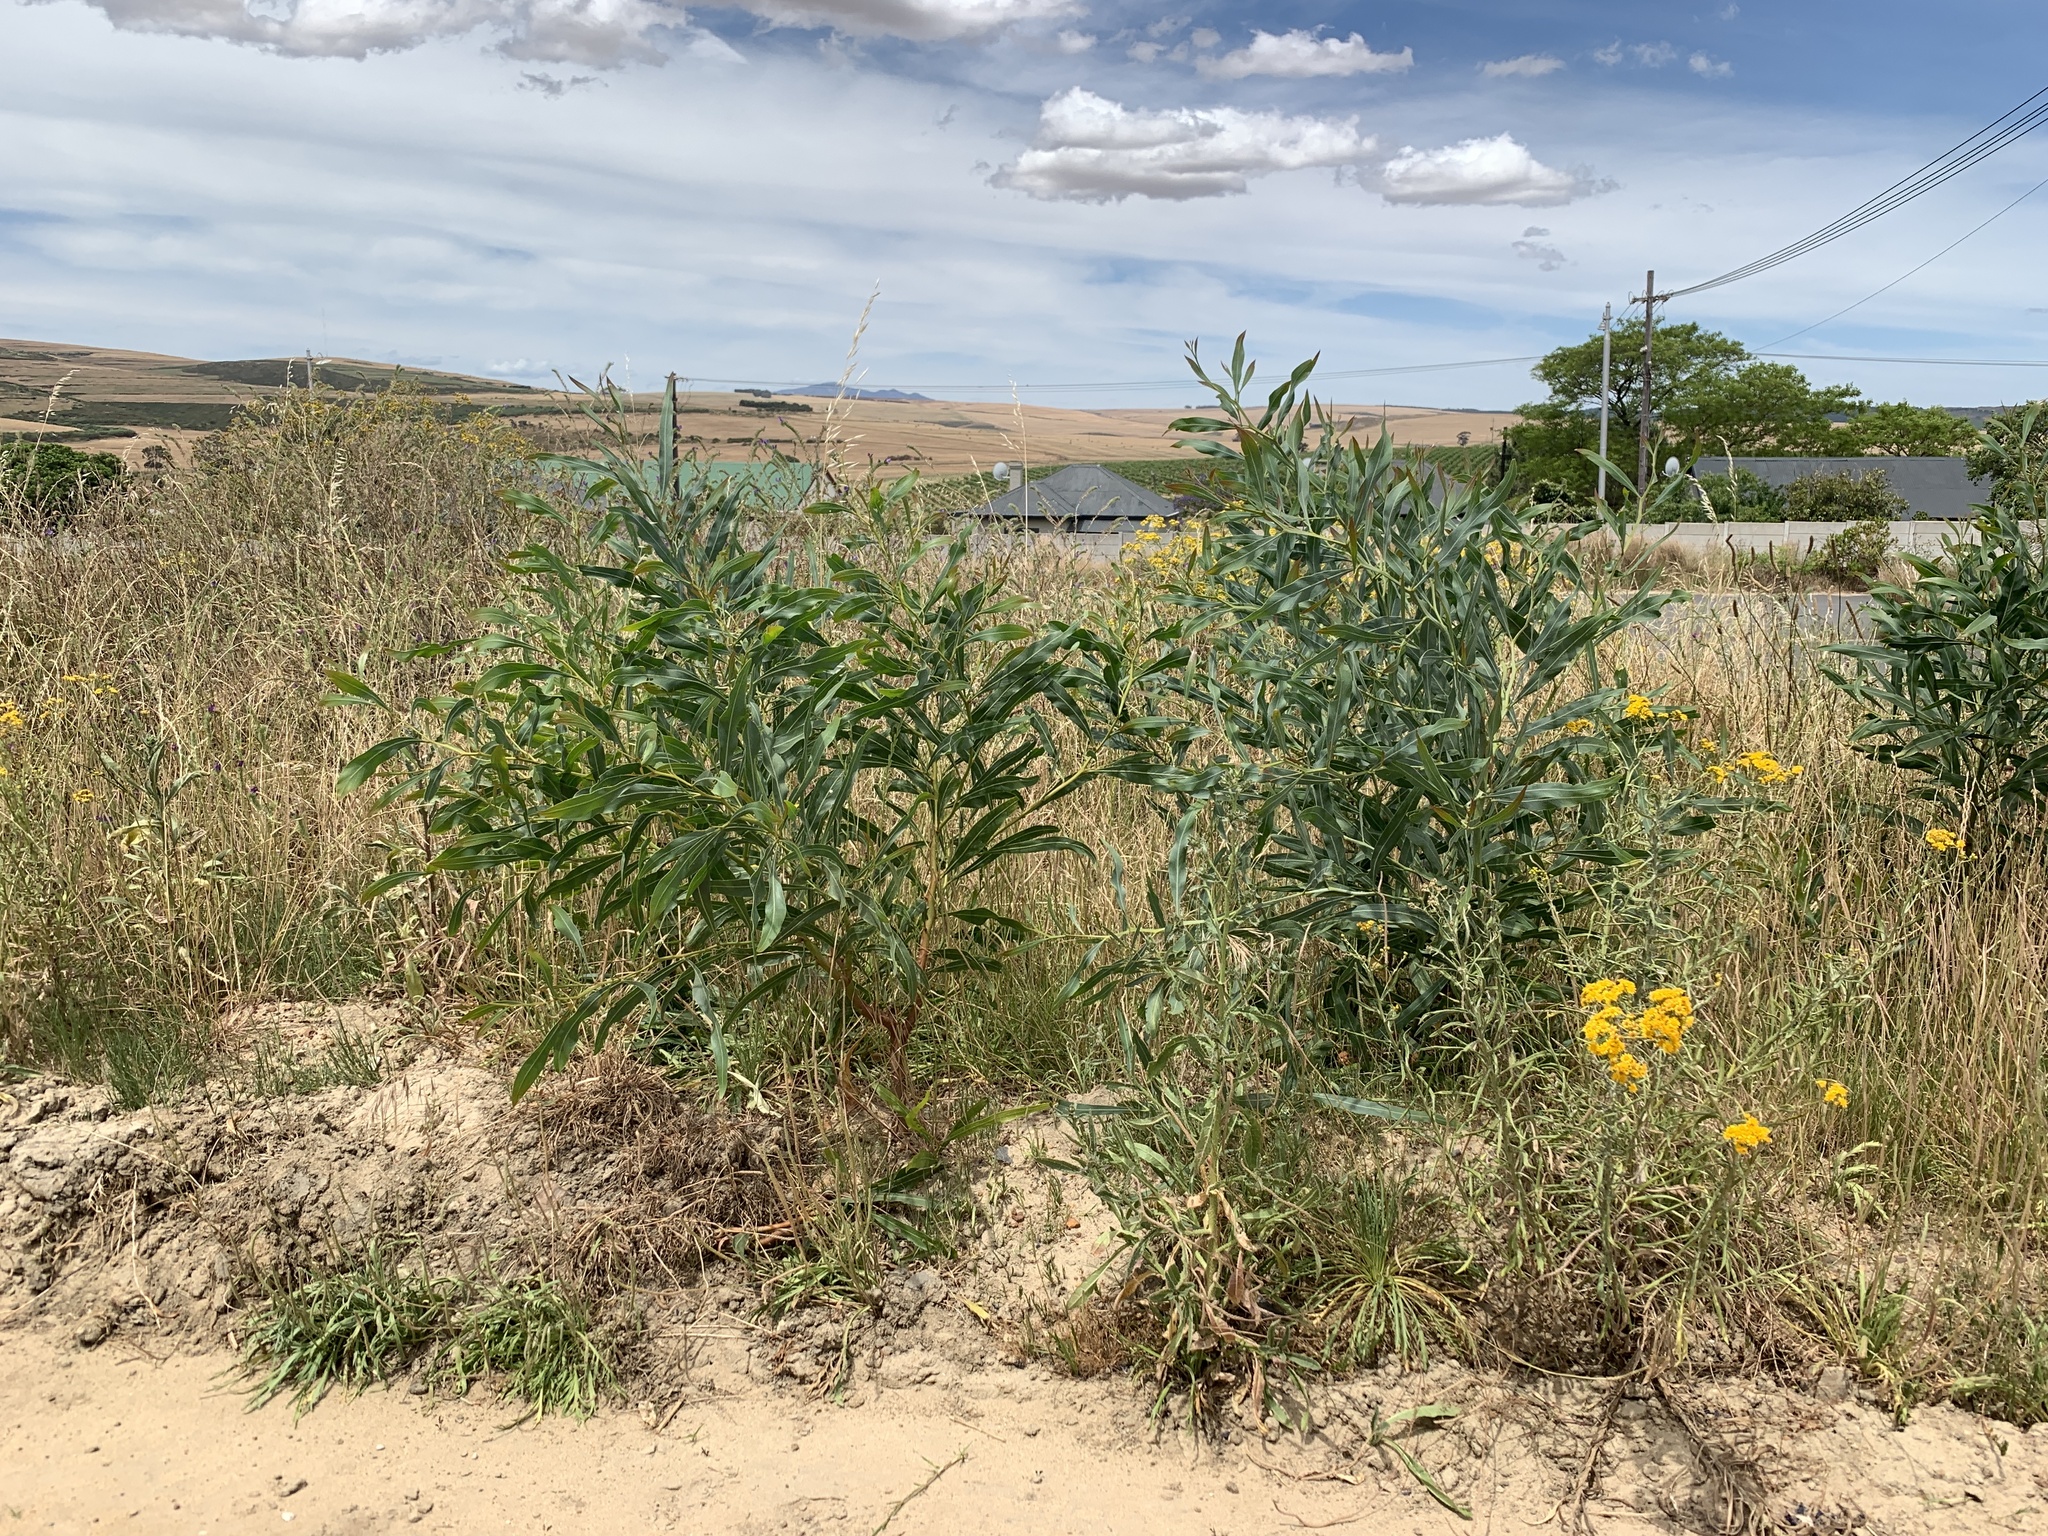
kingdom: Plantae
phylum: Tracheophyta
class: Magnoliopsida
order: Fabales
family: Fabaceae
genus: Acacia
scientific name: Acacia saligna
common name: Orange wattle
